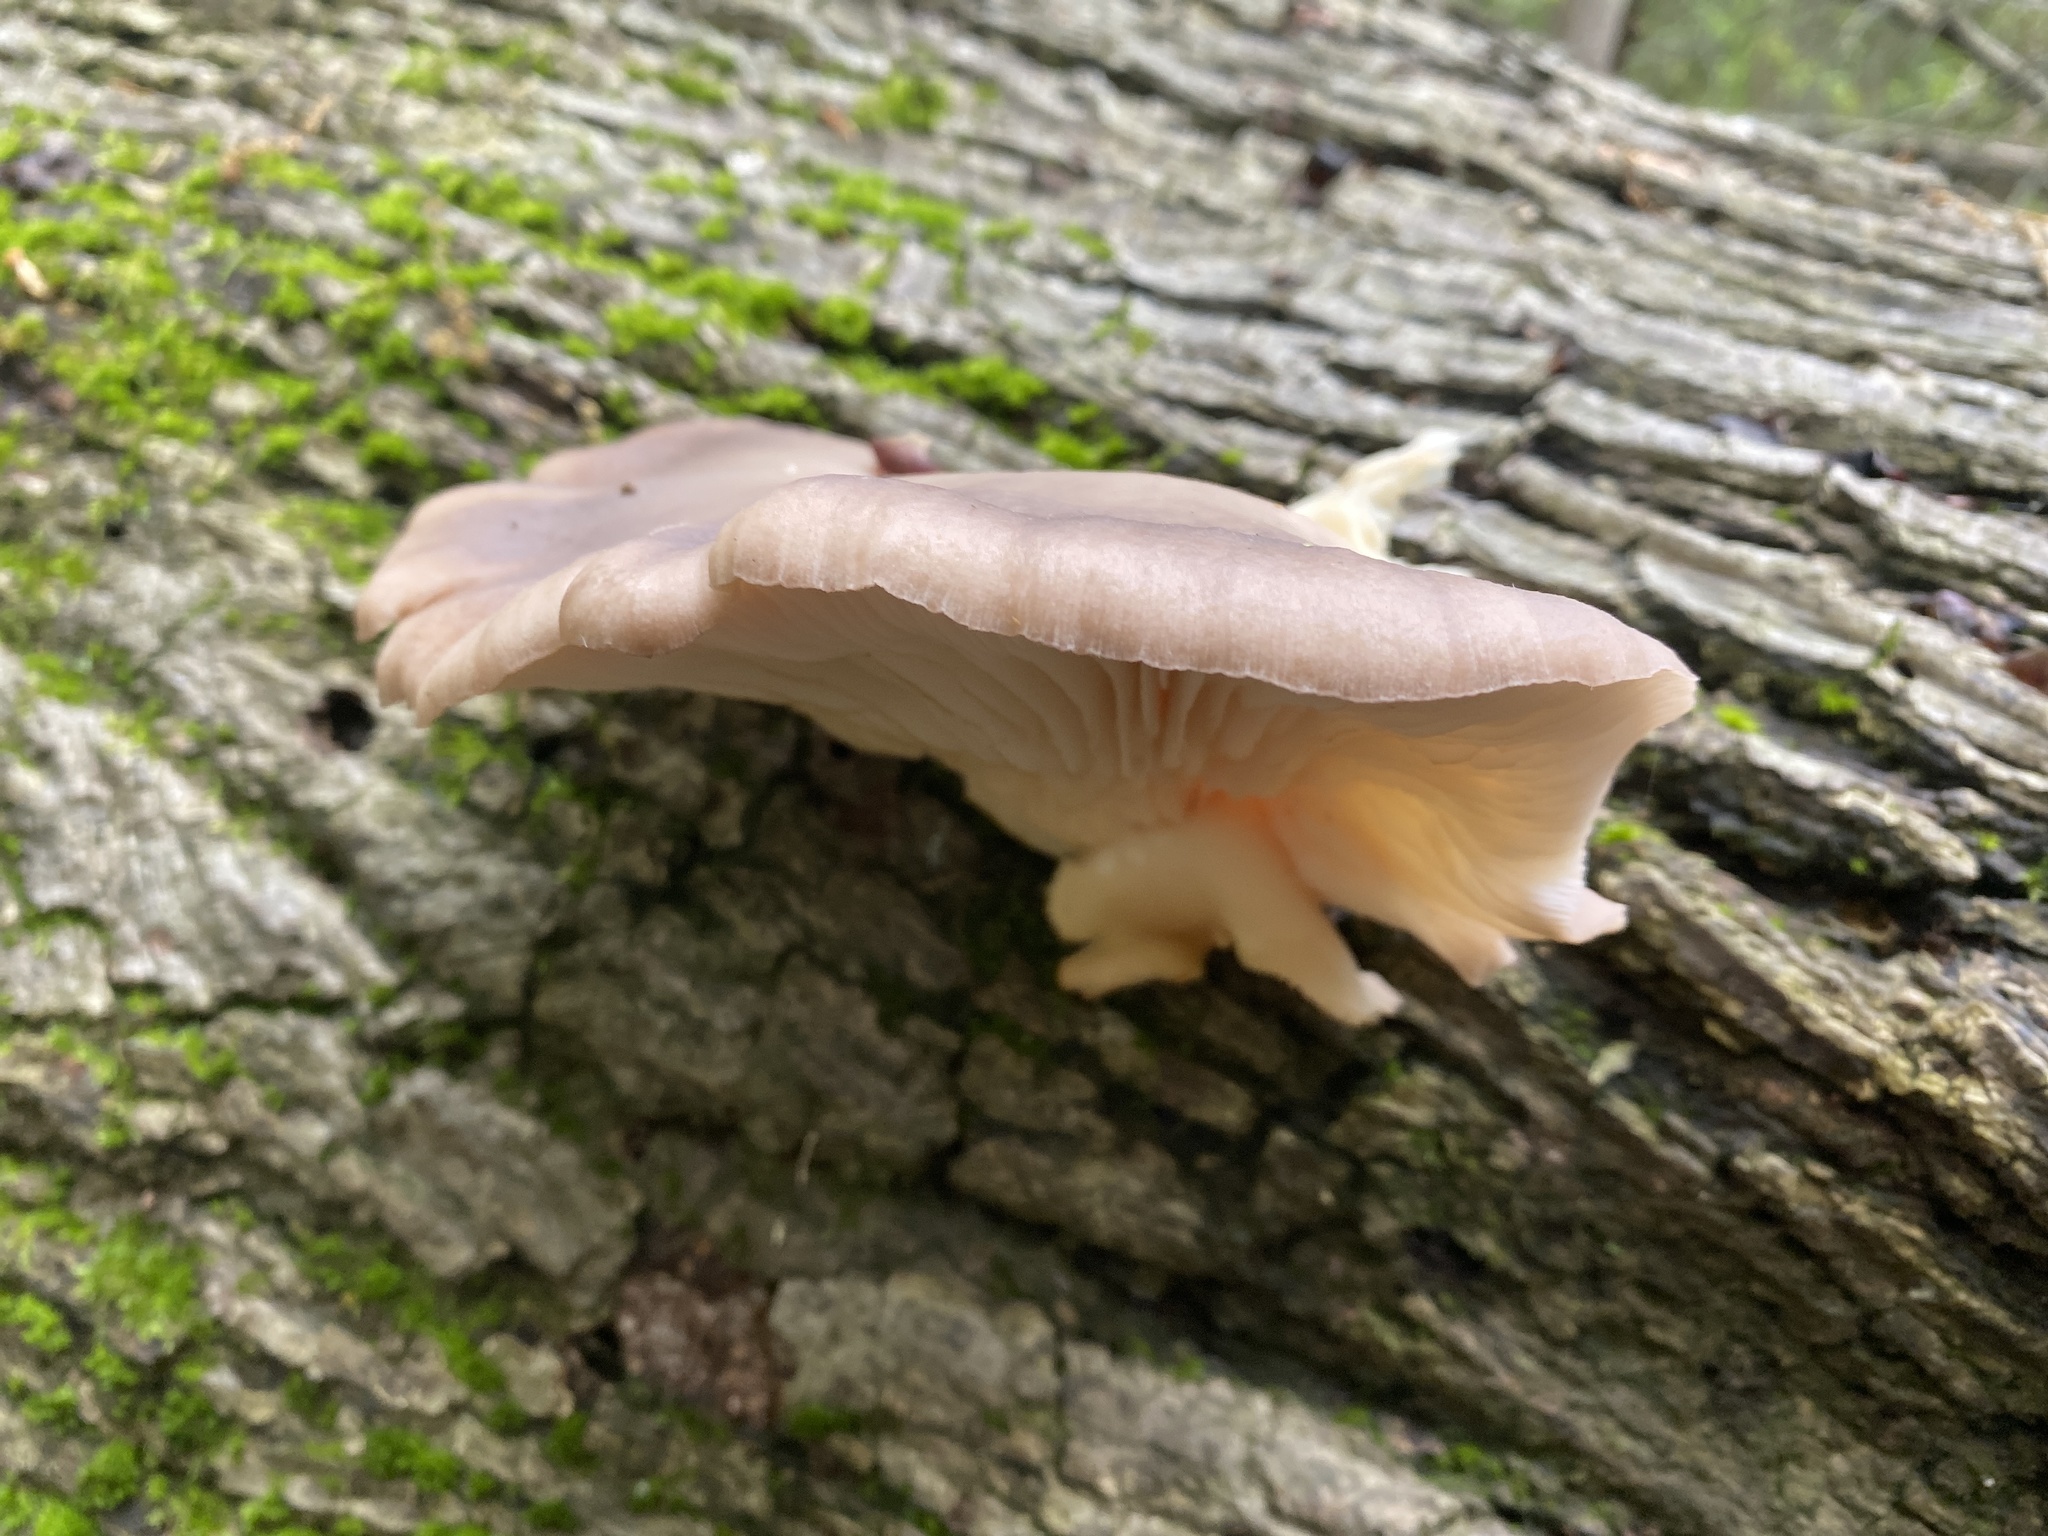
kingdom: Fungi
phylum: Basidiomycota
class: Agaricomycetes
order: Agaricales
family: Pleurotaceae
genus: Pleurotus
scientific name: Pleurotus ostreatus
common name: Oyster mushroom
